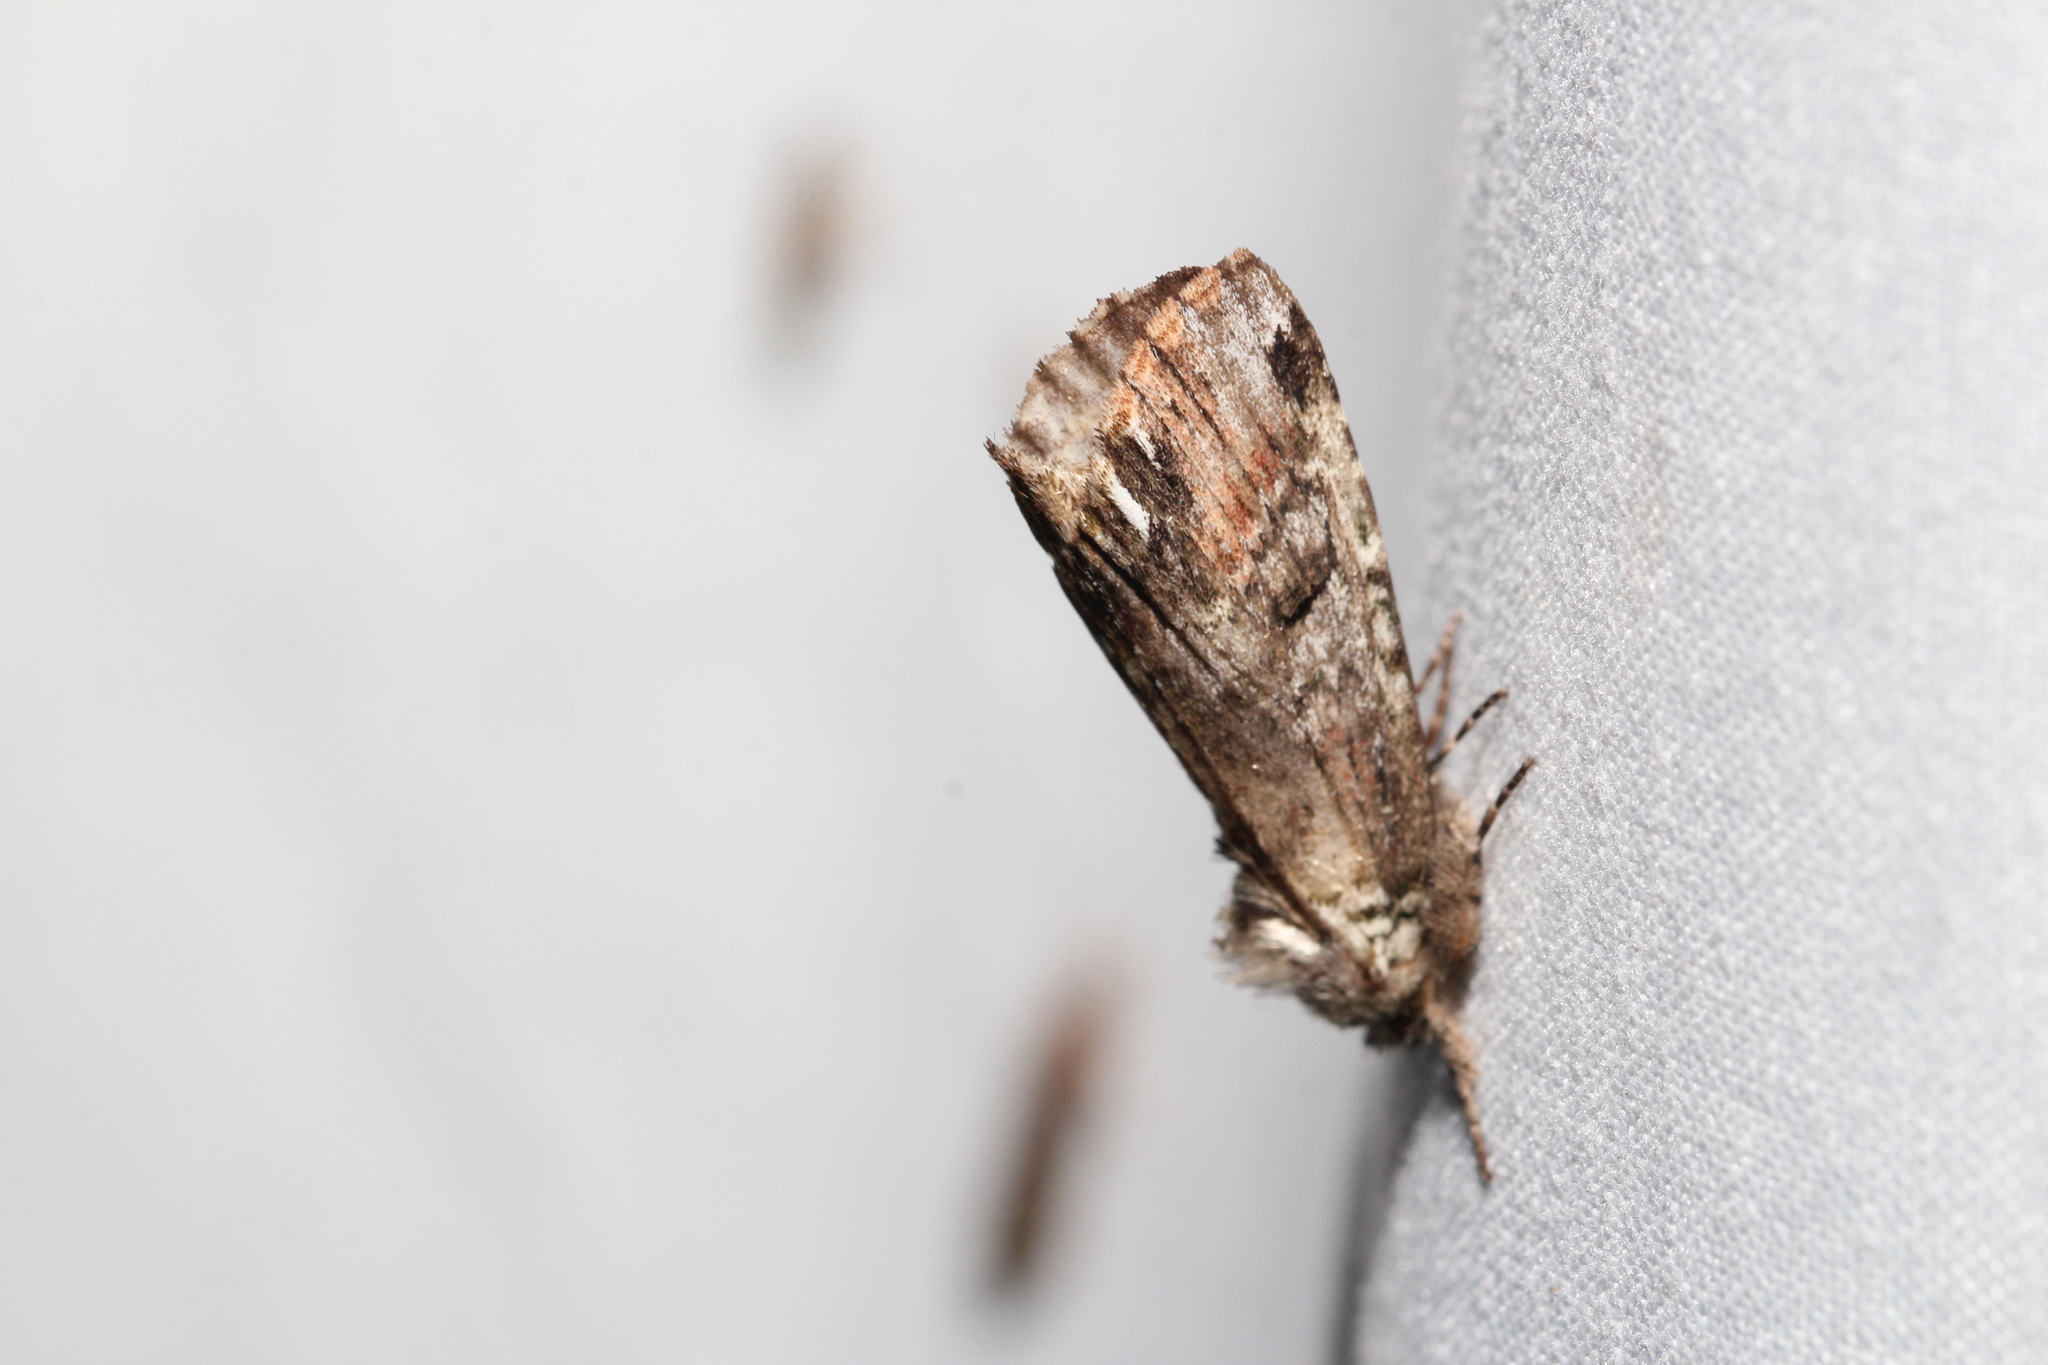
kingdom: Animalia
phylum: Arthropoda
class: Insecta
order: Lepidoptera
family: Notodontidae
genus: Schizura
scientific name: Schizura
